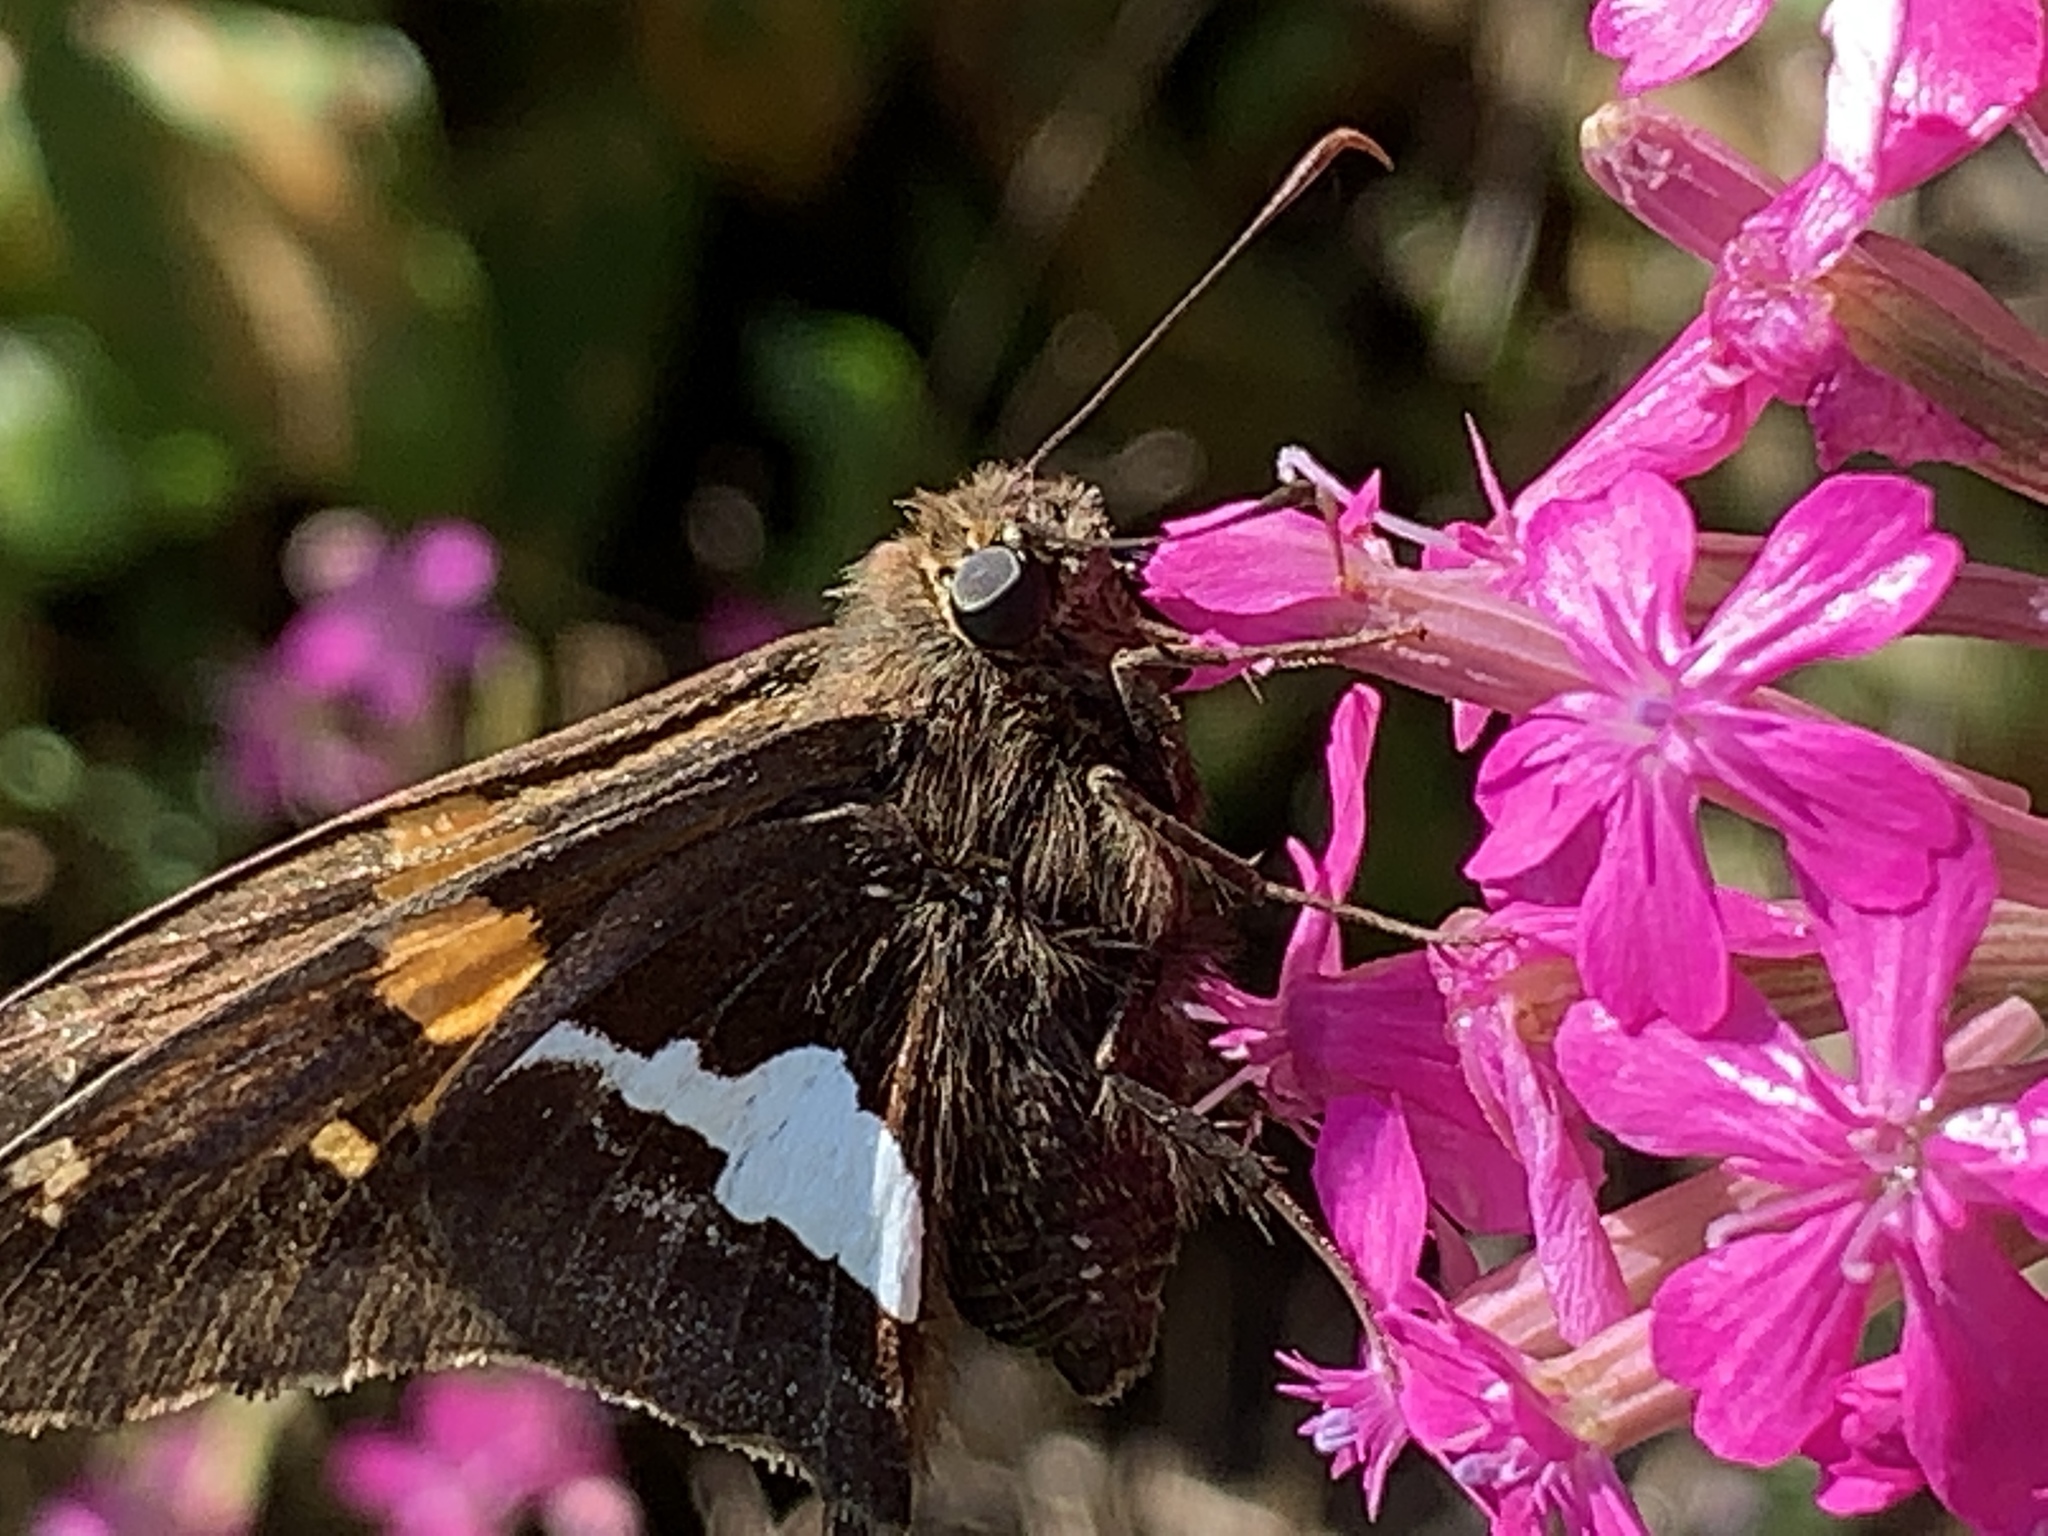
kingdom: Animalia
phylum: Arthropoda
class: Insecta
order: Lepidoptera
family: Hesperiidae
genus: Epargyreus
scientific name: Epargyreus clarus
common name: Silver-spotted skipper
